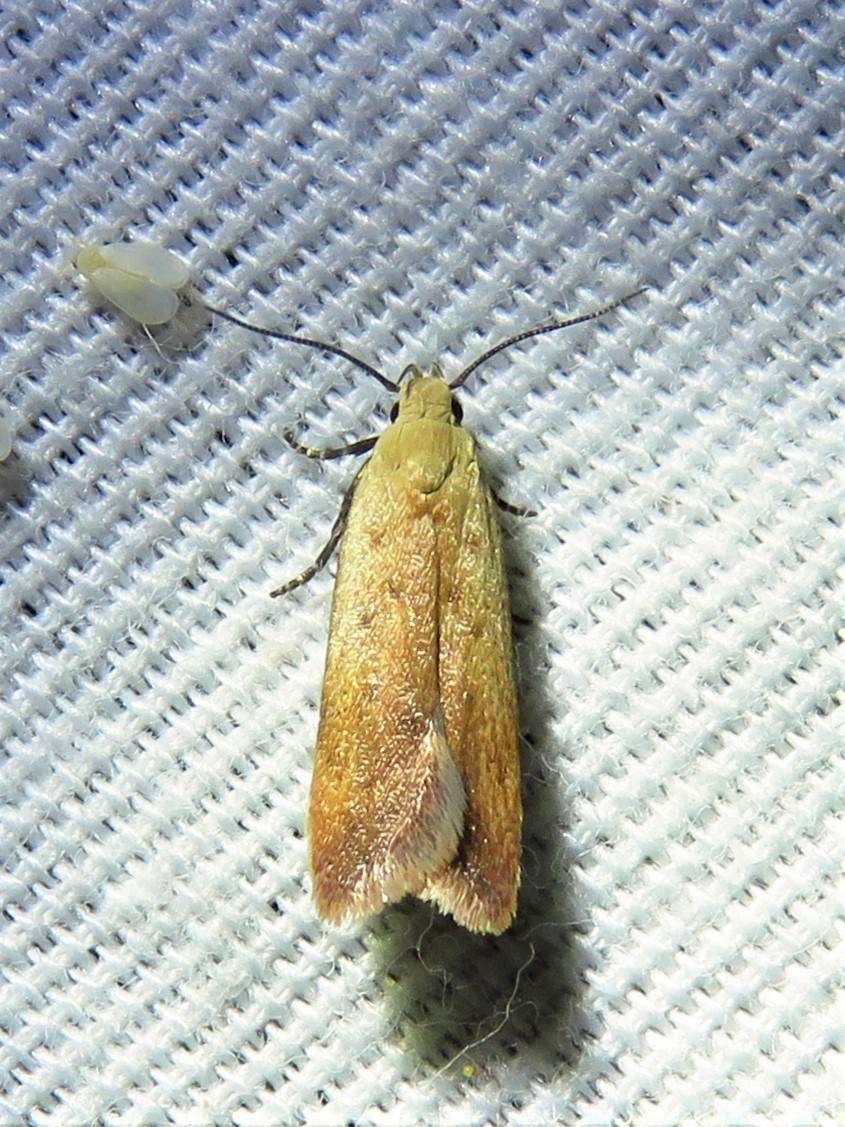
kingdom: Animalia
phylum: Arthropoda
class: Insecta
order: Lepidoptera
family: Gelechiidae
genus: Anacampsis
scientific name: Anacampsis fullonella
